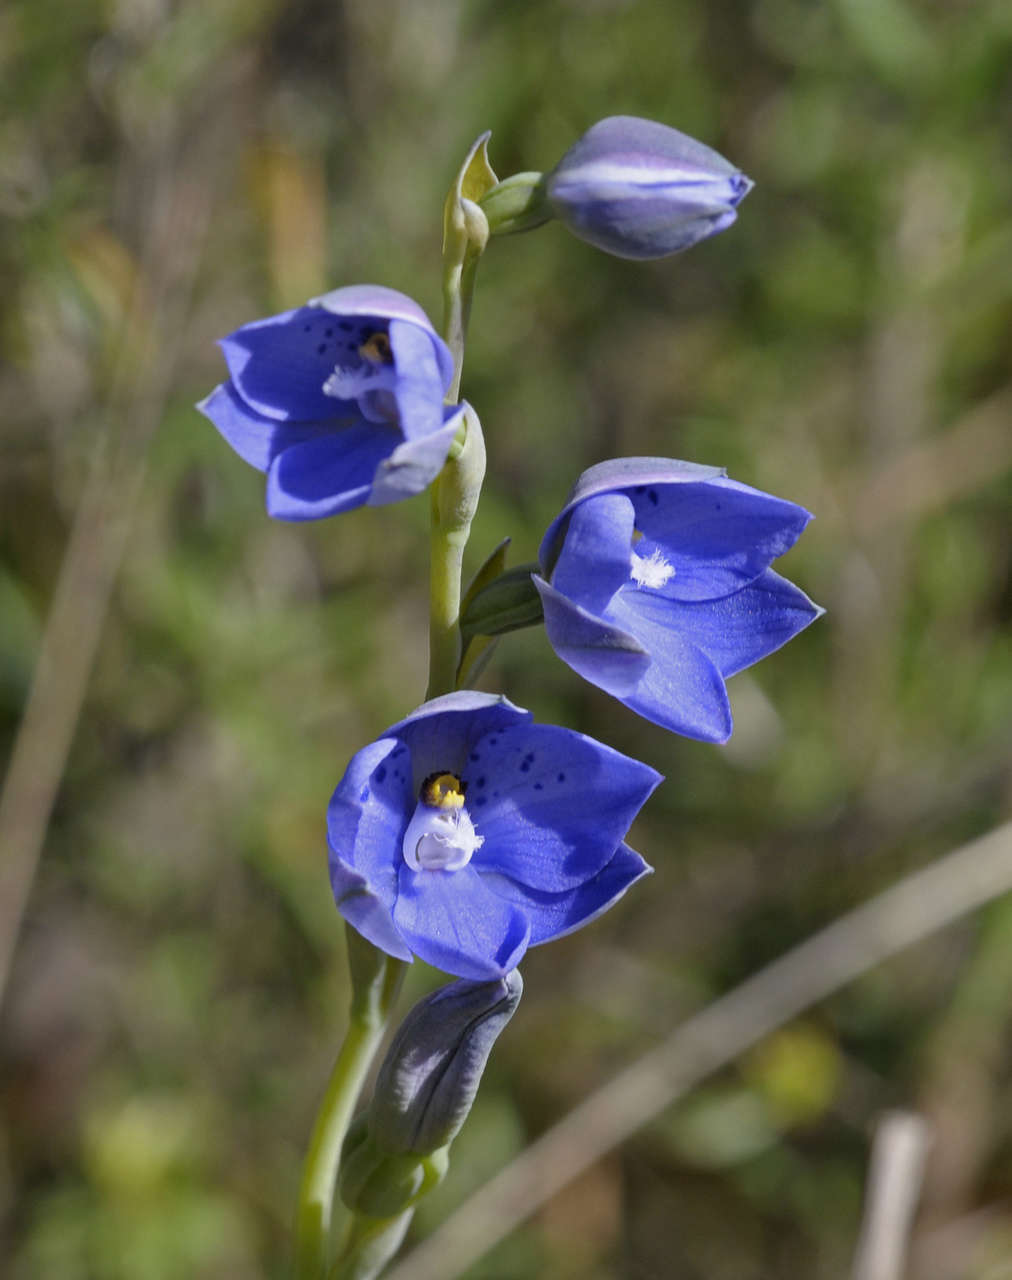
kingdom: Plantae
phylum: Tracheophyta
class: Liliopsida
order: Asparagales
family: Orchidaceae
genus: Thelymitra
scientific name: Thelymitra juncifolia
